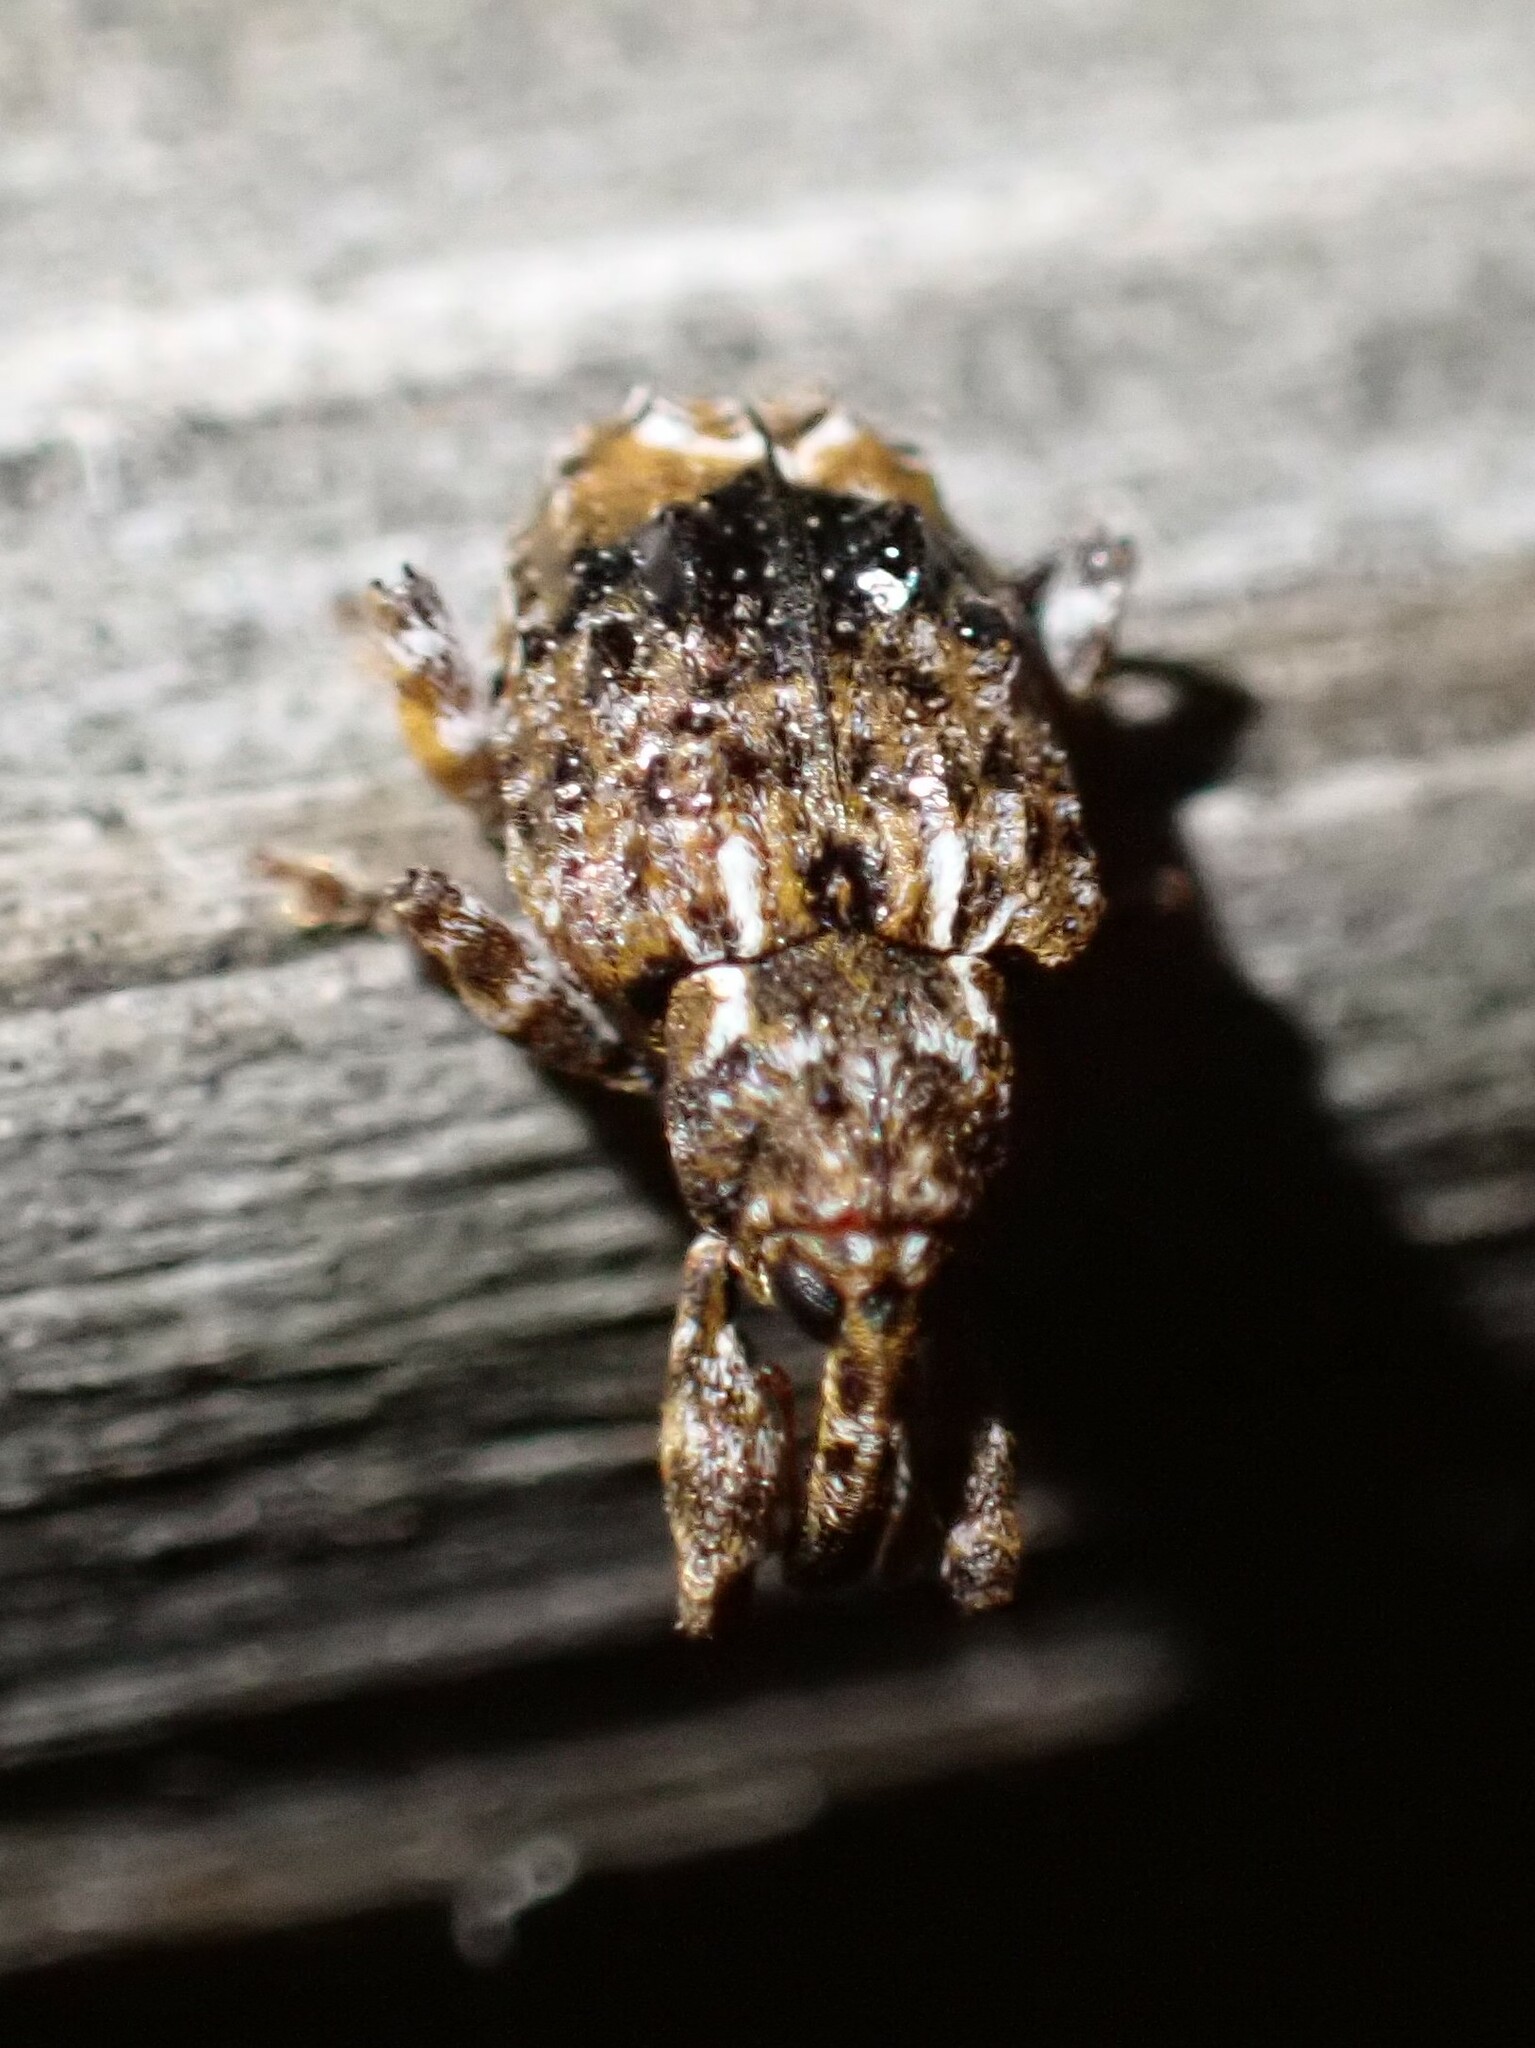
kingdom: Animalia
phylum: Arthropoda
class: Insecta
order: Coleoptera
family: Curculionidae
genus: Conotrachelus
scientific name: Conotrachelus nenuphar
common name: Plum curculio
